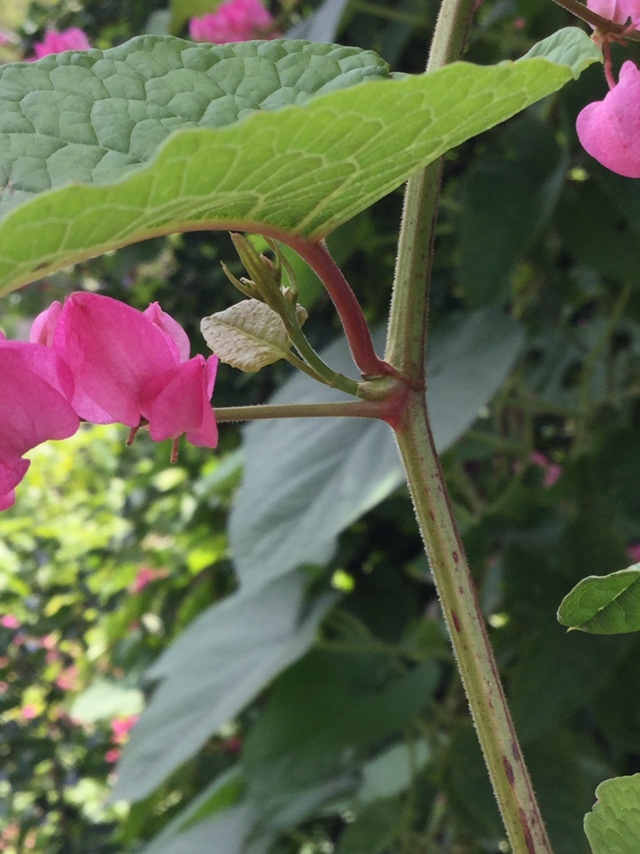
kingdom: Plantae
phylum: Tracheophyta
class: Magnoliopsida
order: Caryophyllales
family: Polygonaceae
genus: Antigonon
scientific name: Antigonon leptopus
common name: Coral vine
